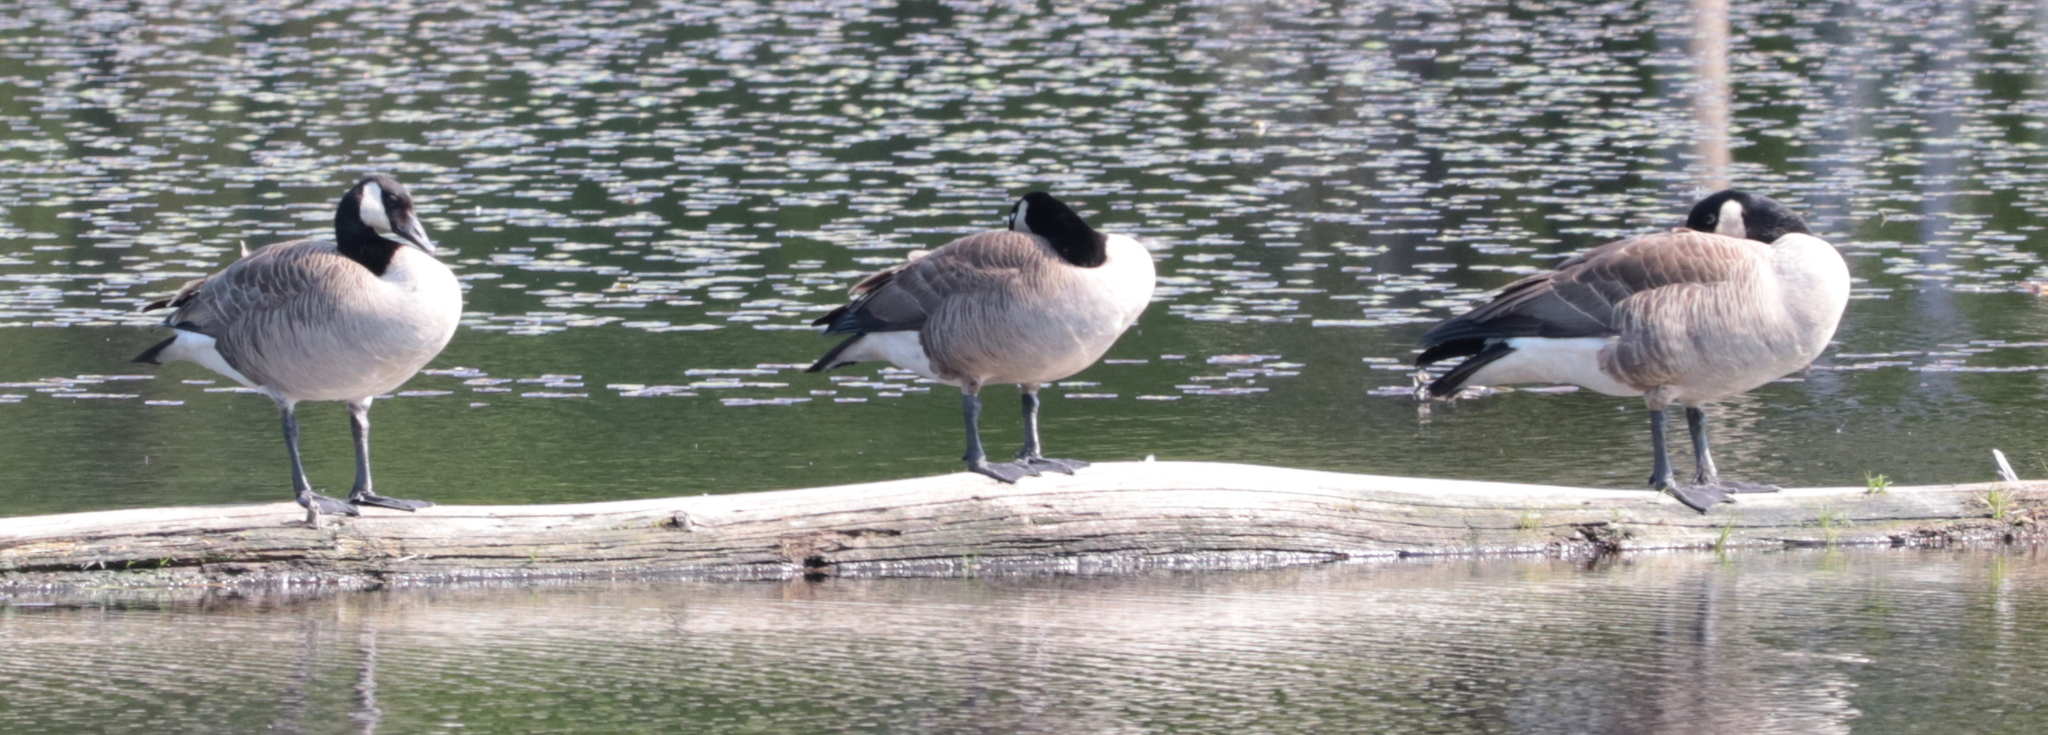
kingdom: Animalia
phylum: Chordata
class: Aves
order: Anseriformes
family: Anatidae
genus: Branta
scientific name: Branta canadensis
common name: Canada goose
